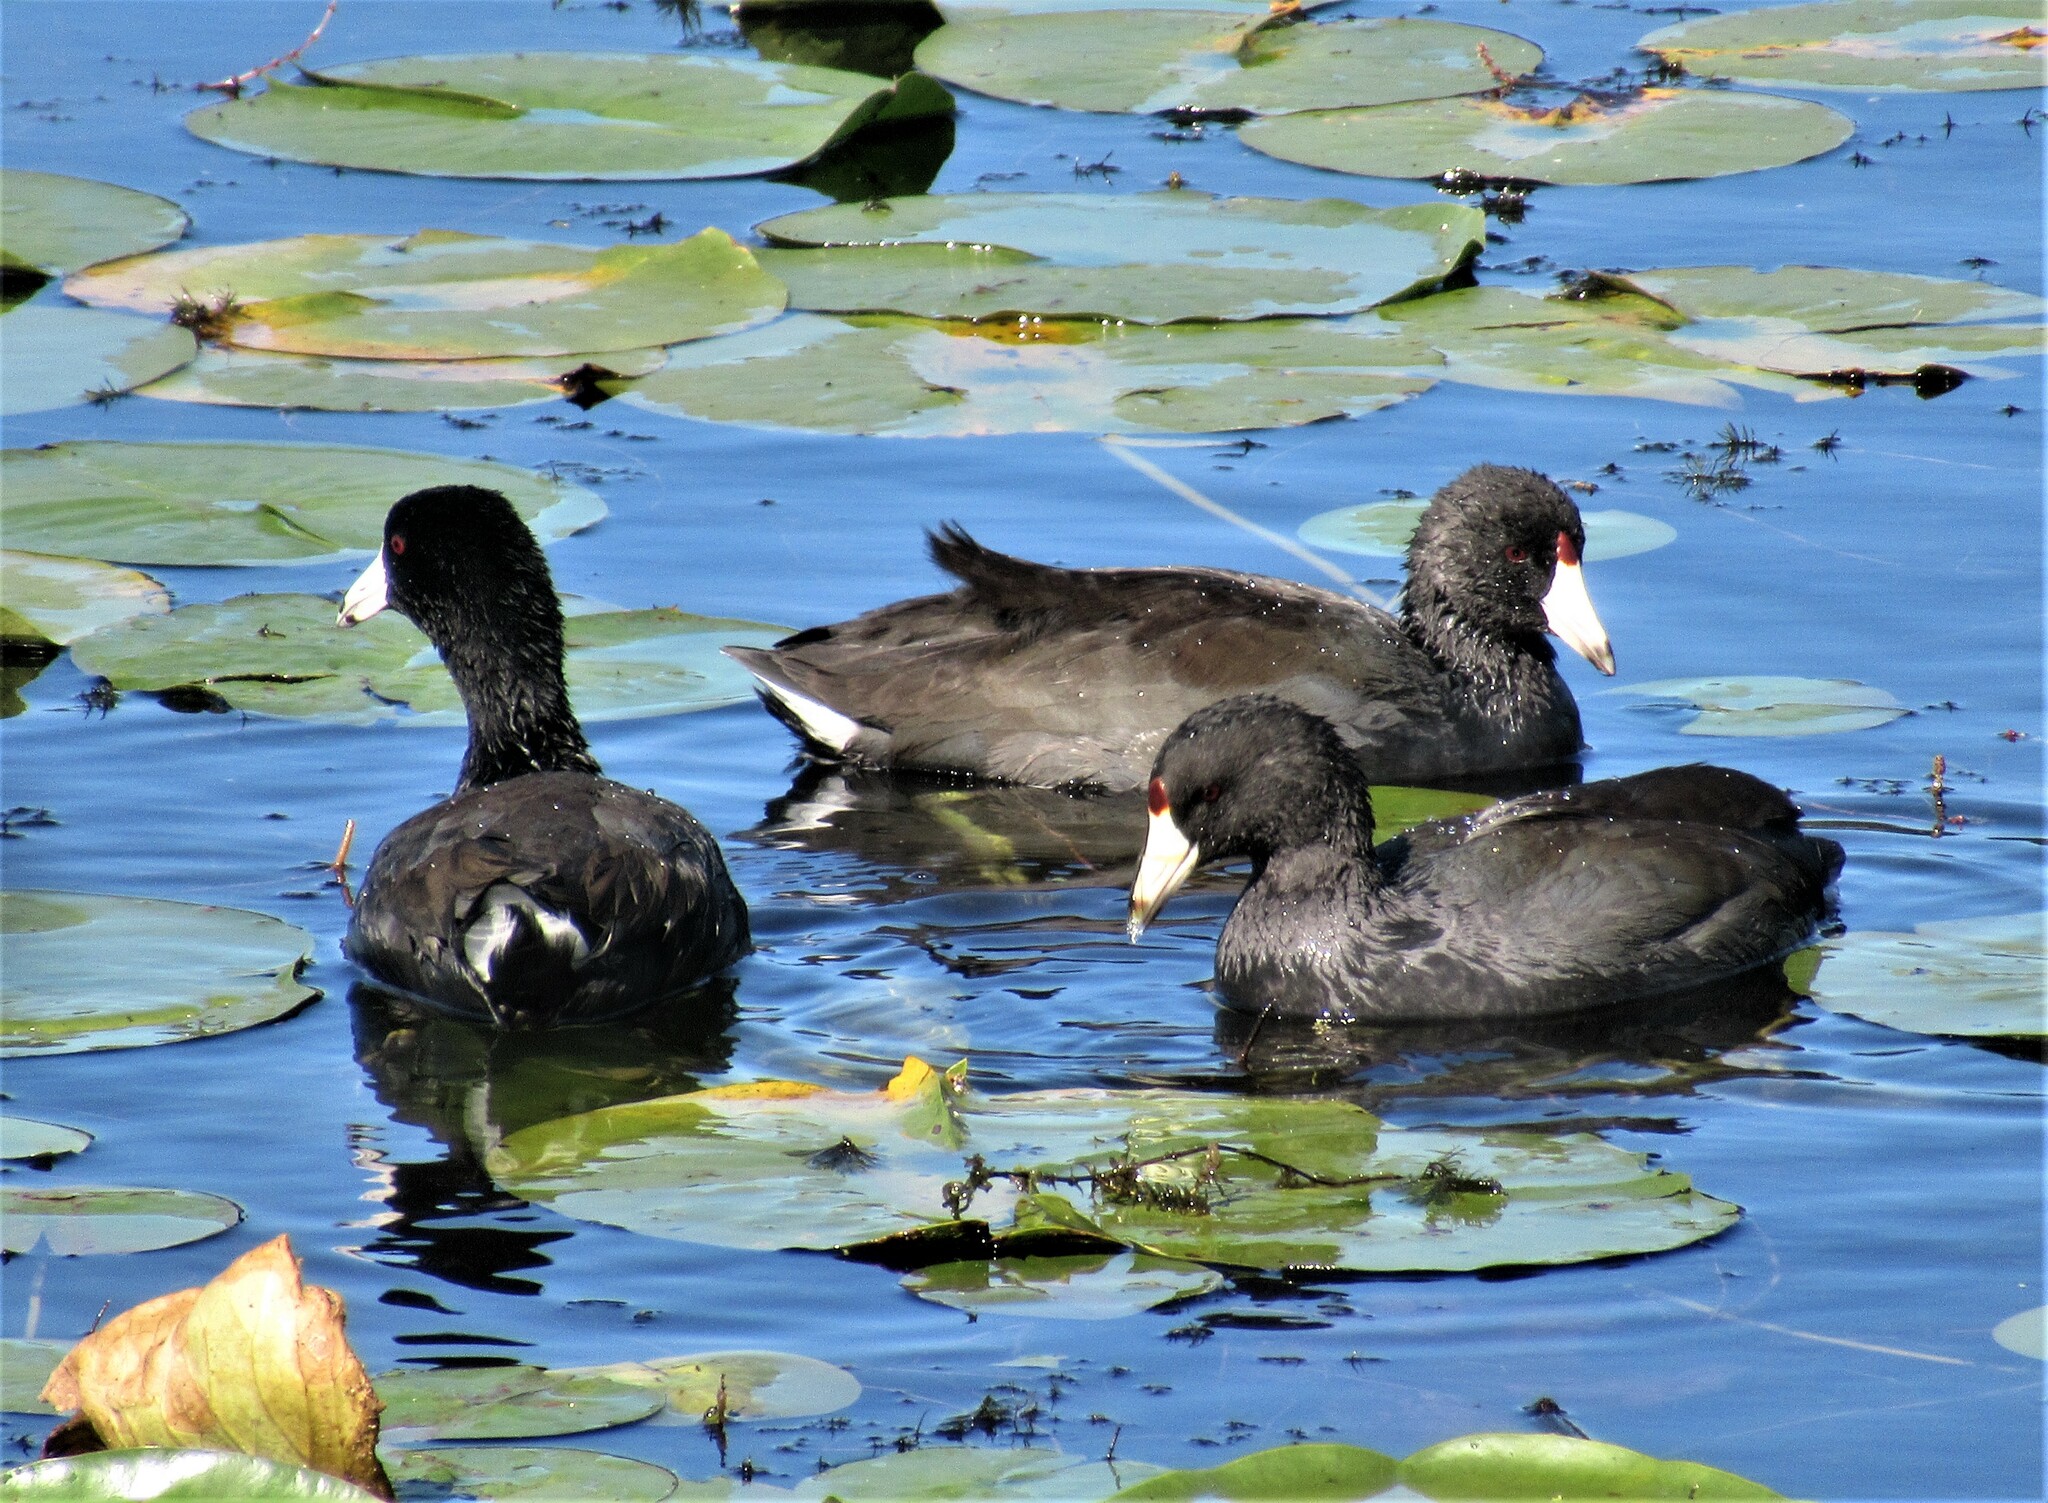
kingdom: Animalia
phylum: Chordata
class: Aves
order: Gruiformes
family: Rallidae
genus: Fulica
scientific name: Fulica americana
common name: American coot
